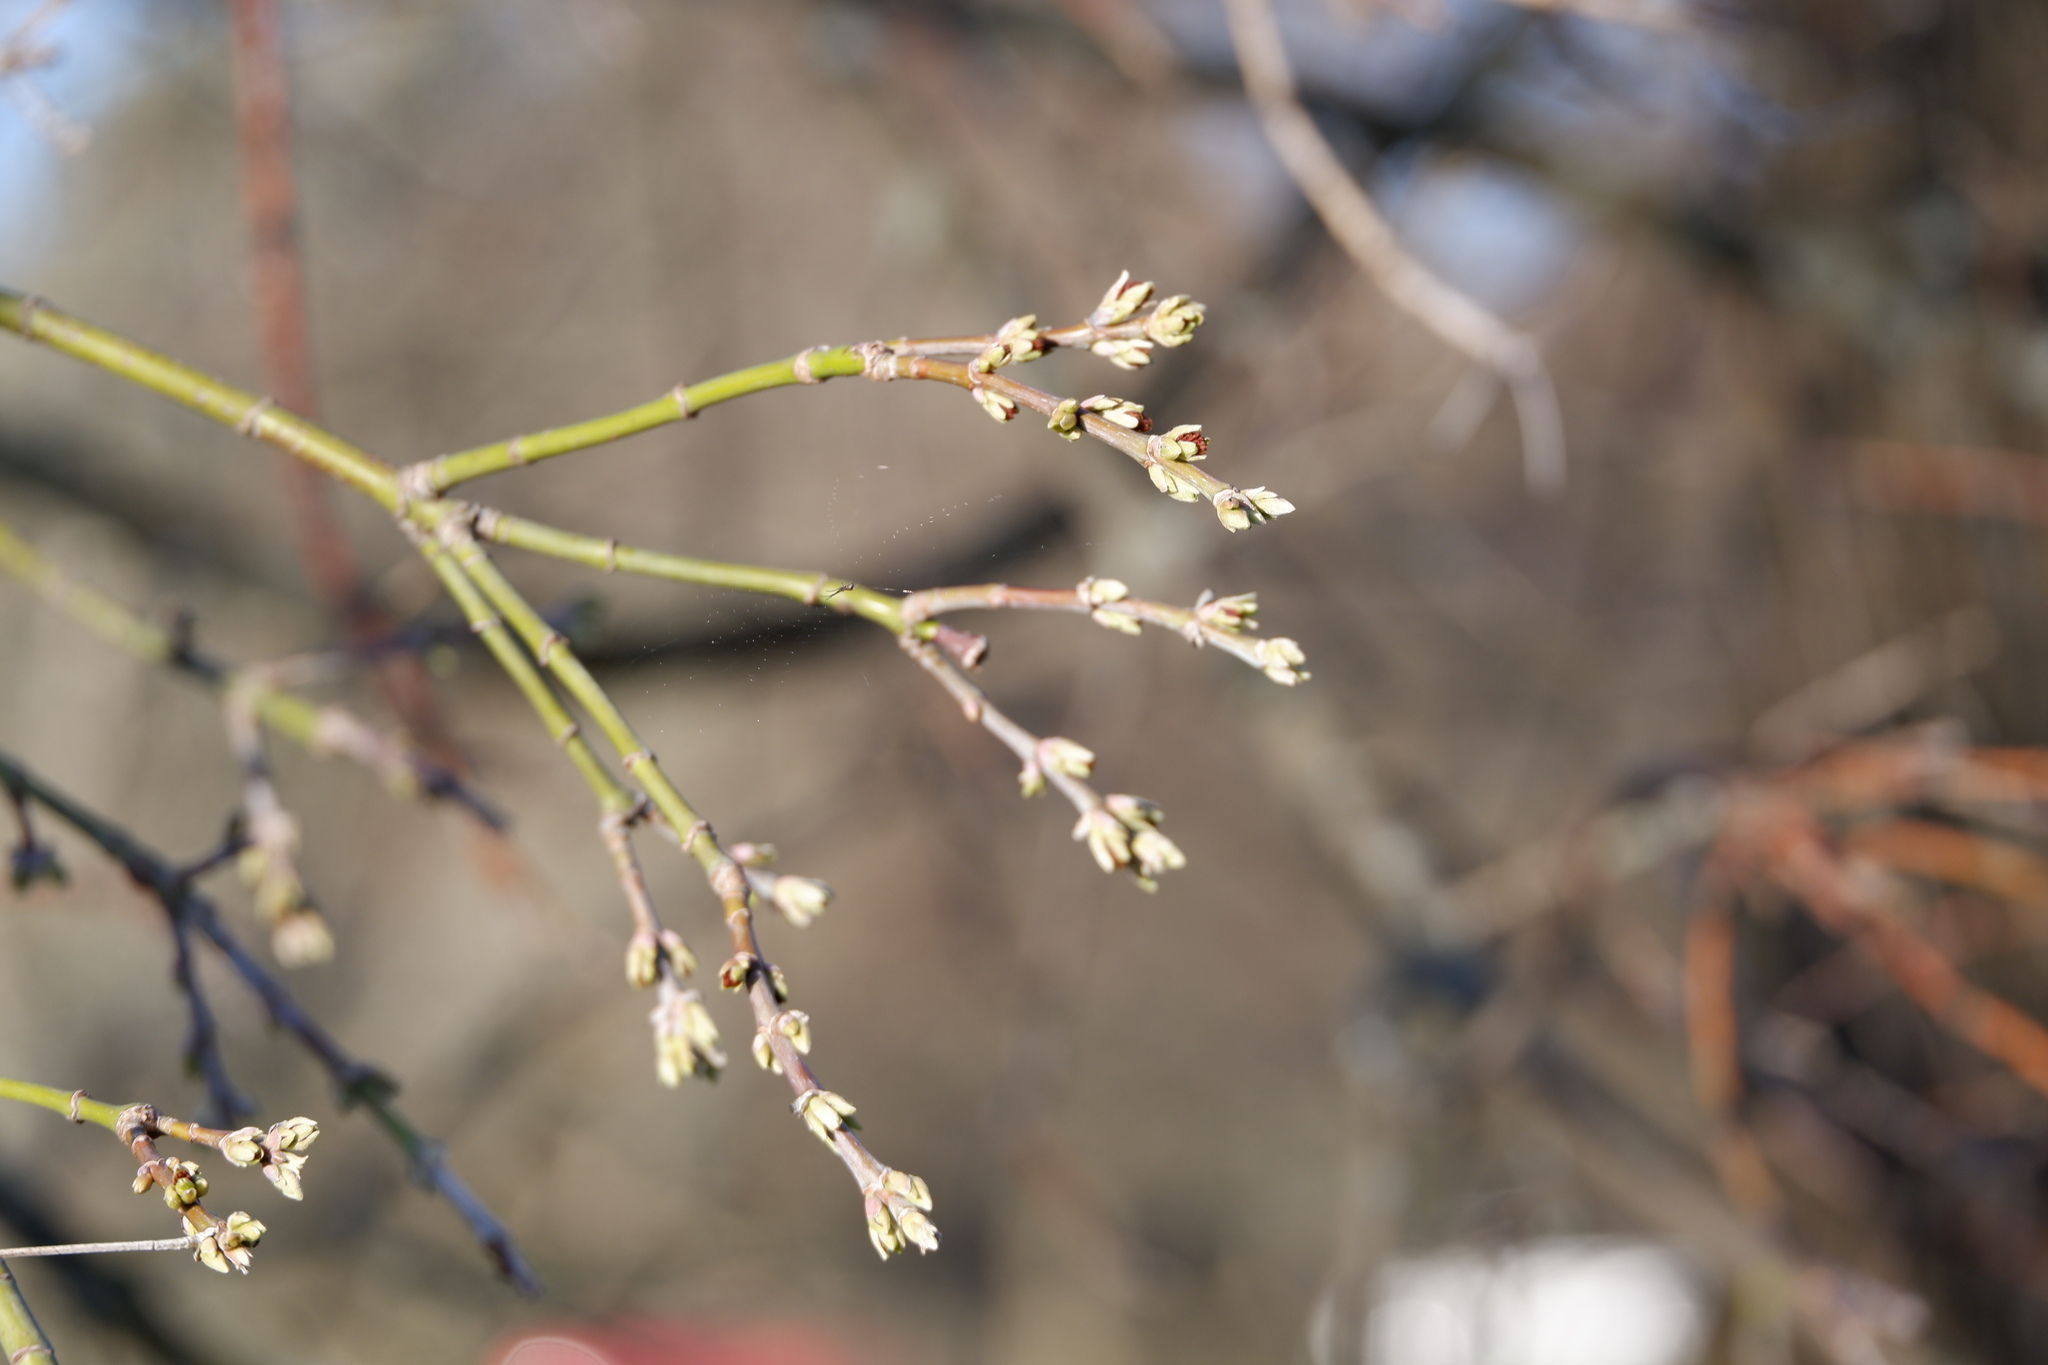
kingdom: Plantae
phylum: Tracheophyta
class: Magnoliopsida
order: Sapindales
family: Sapindaceae
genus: Acer
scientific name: Acer negundo
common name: Ashleaf maple
